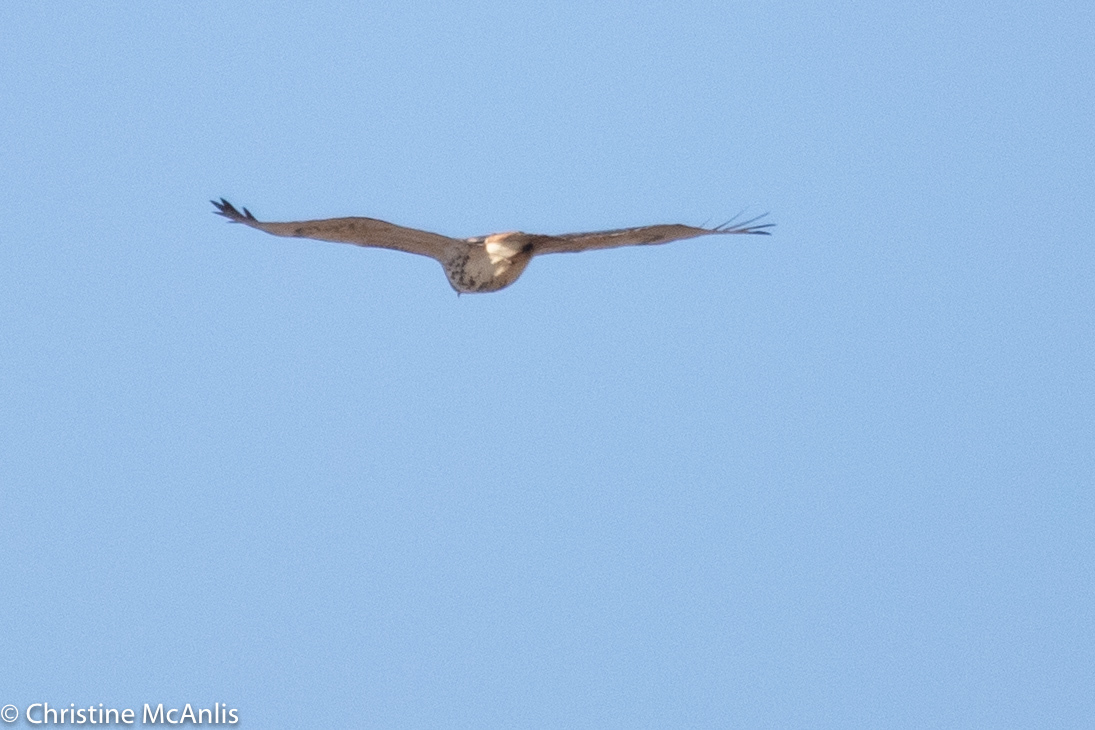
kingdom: Animalia
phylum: Chordata
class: Aves
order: Accipitriformes
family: Accipitridae
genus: Buteo
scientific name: Buteo jamaicensis
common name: Red-tailed hawk
